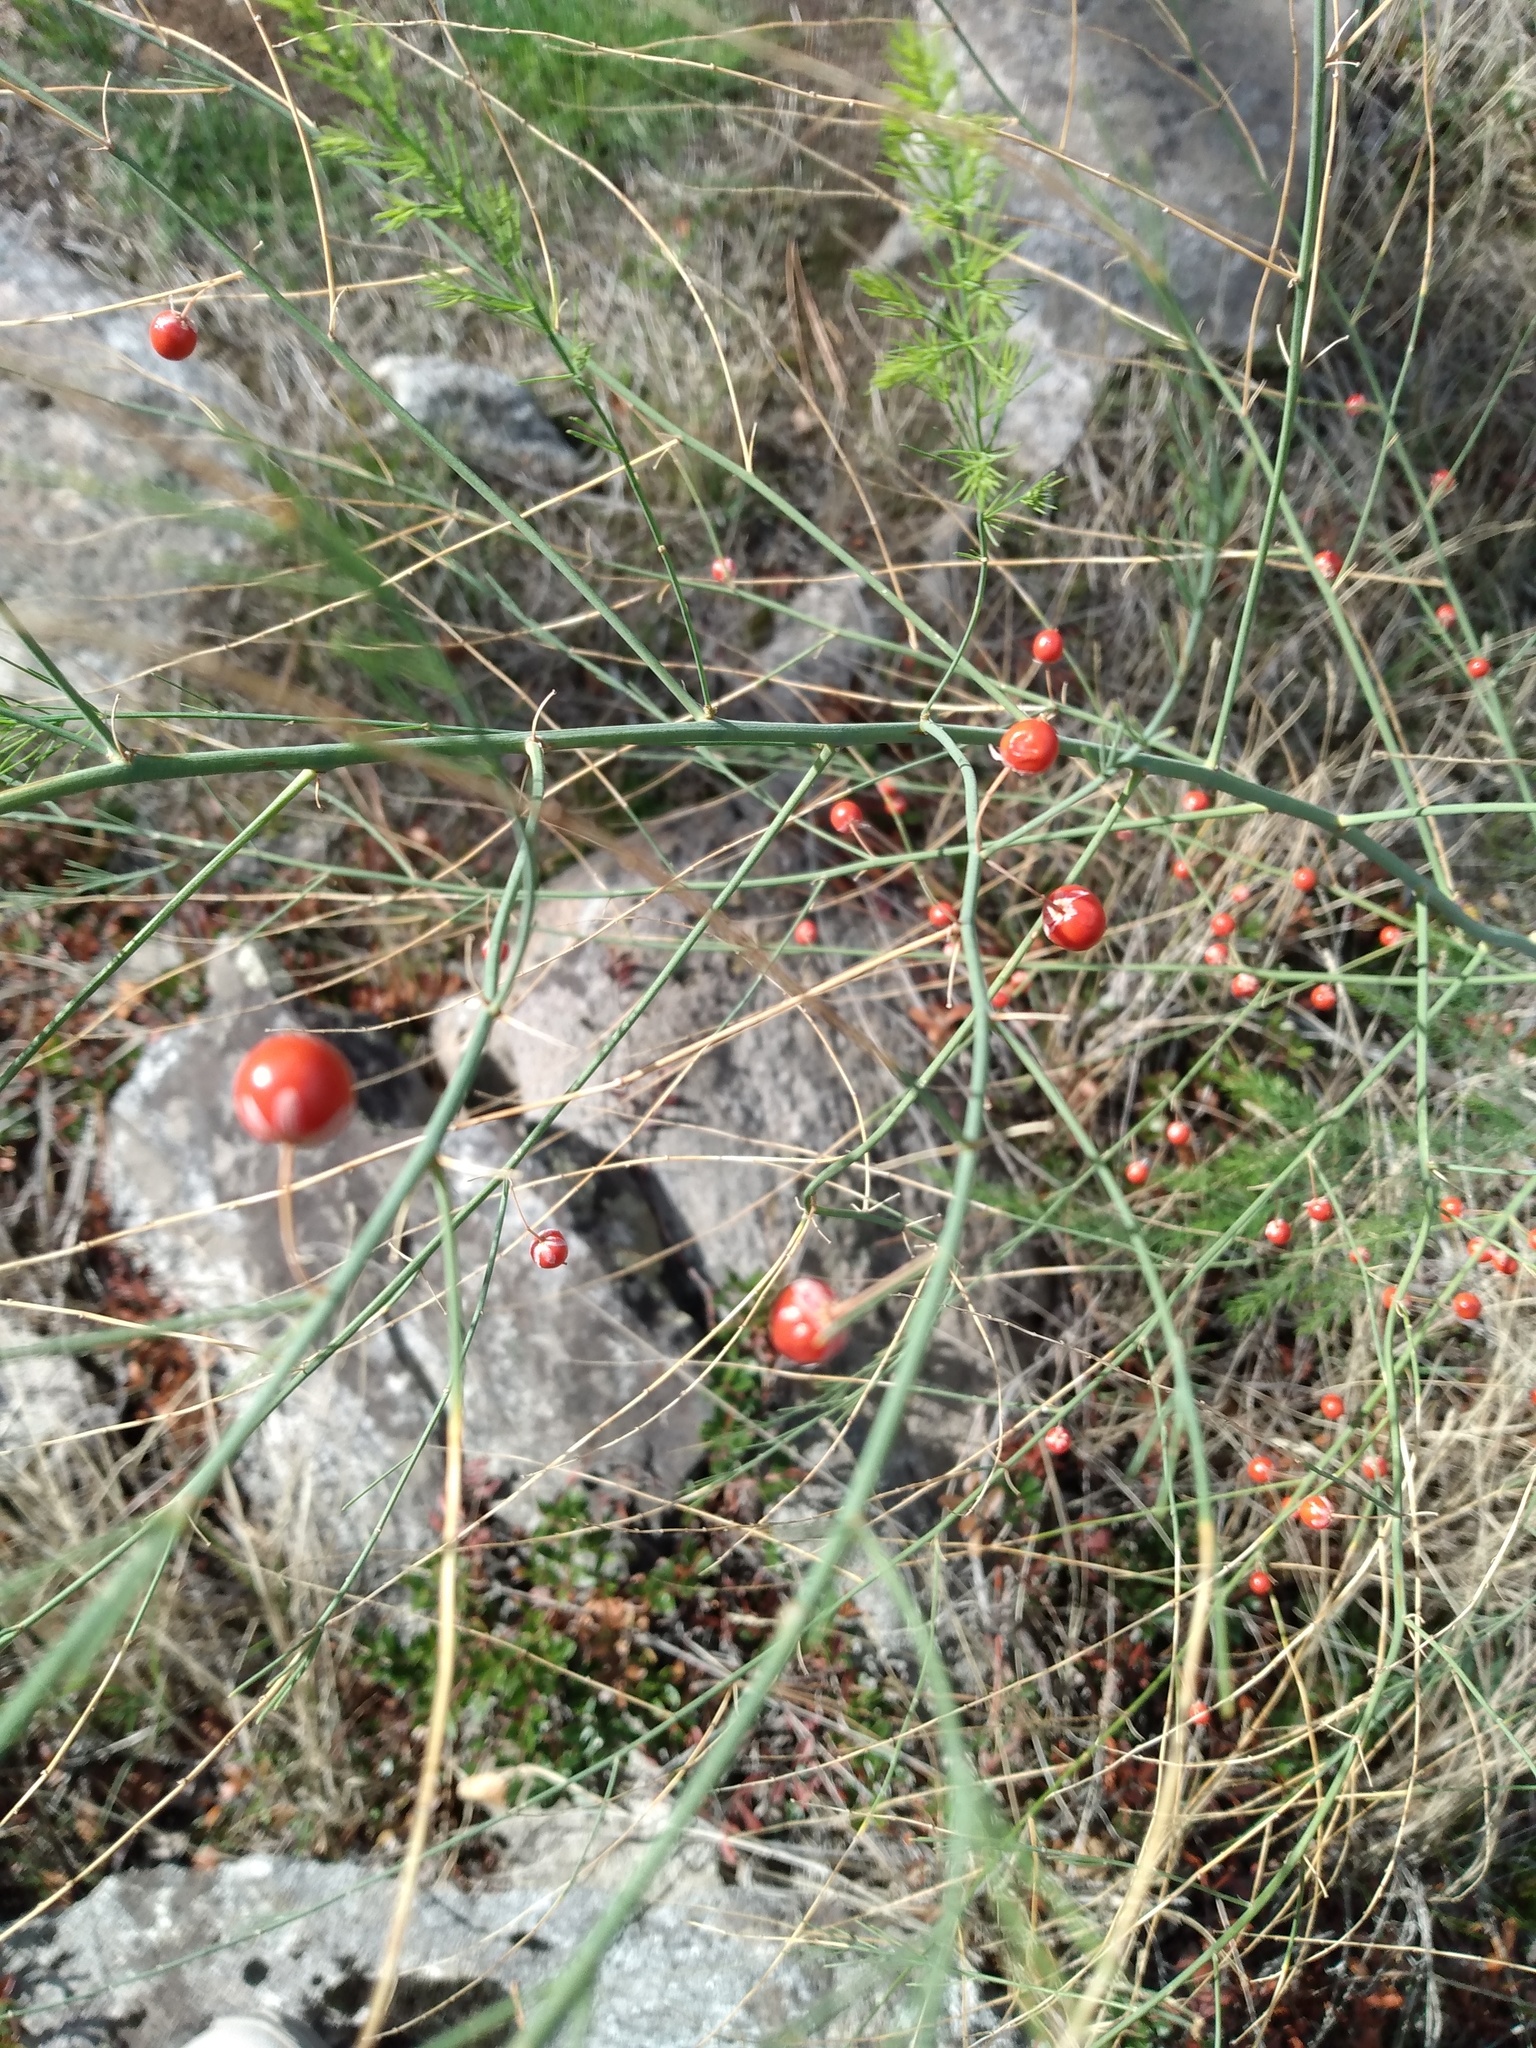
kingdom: Plantae
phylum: Tracheophyta
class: Liliopsida
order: Asparagales
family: Asparagaceae
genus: Asparagus
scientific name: Asparagus officinalis
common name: Garden asparagus
